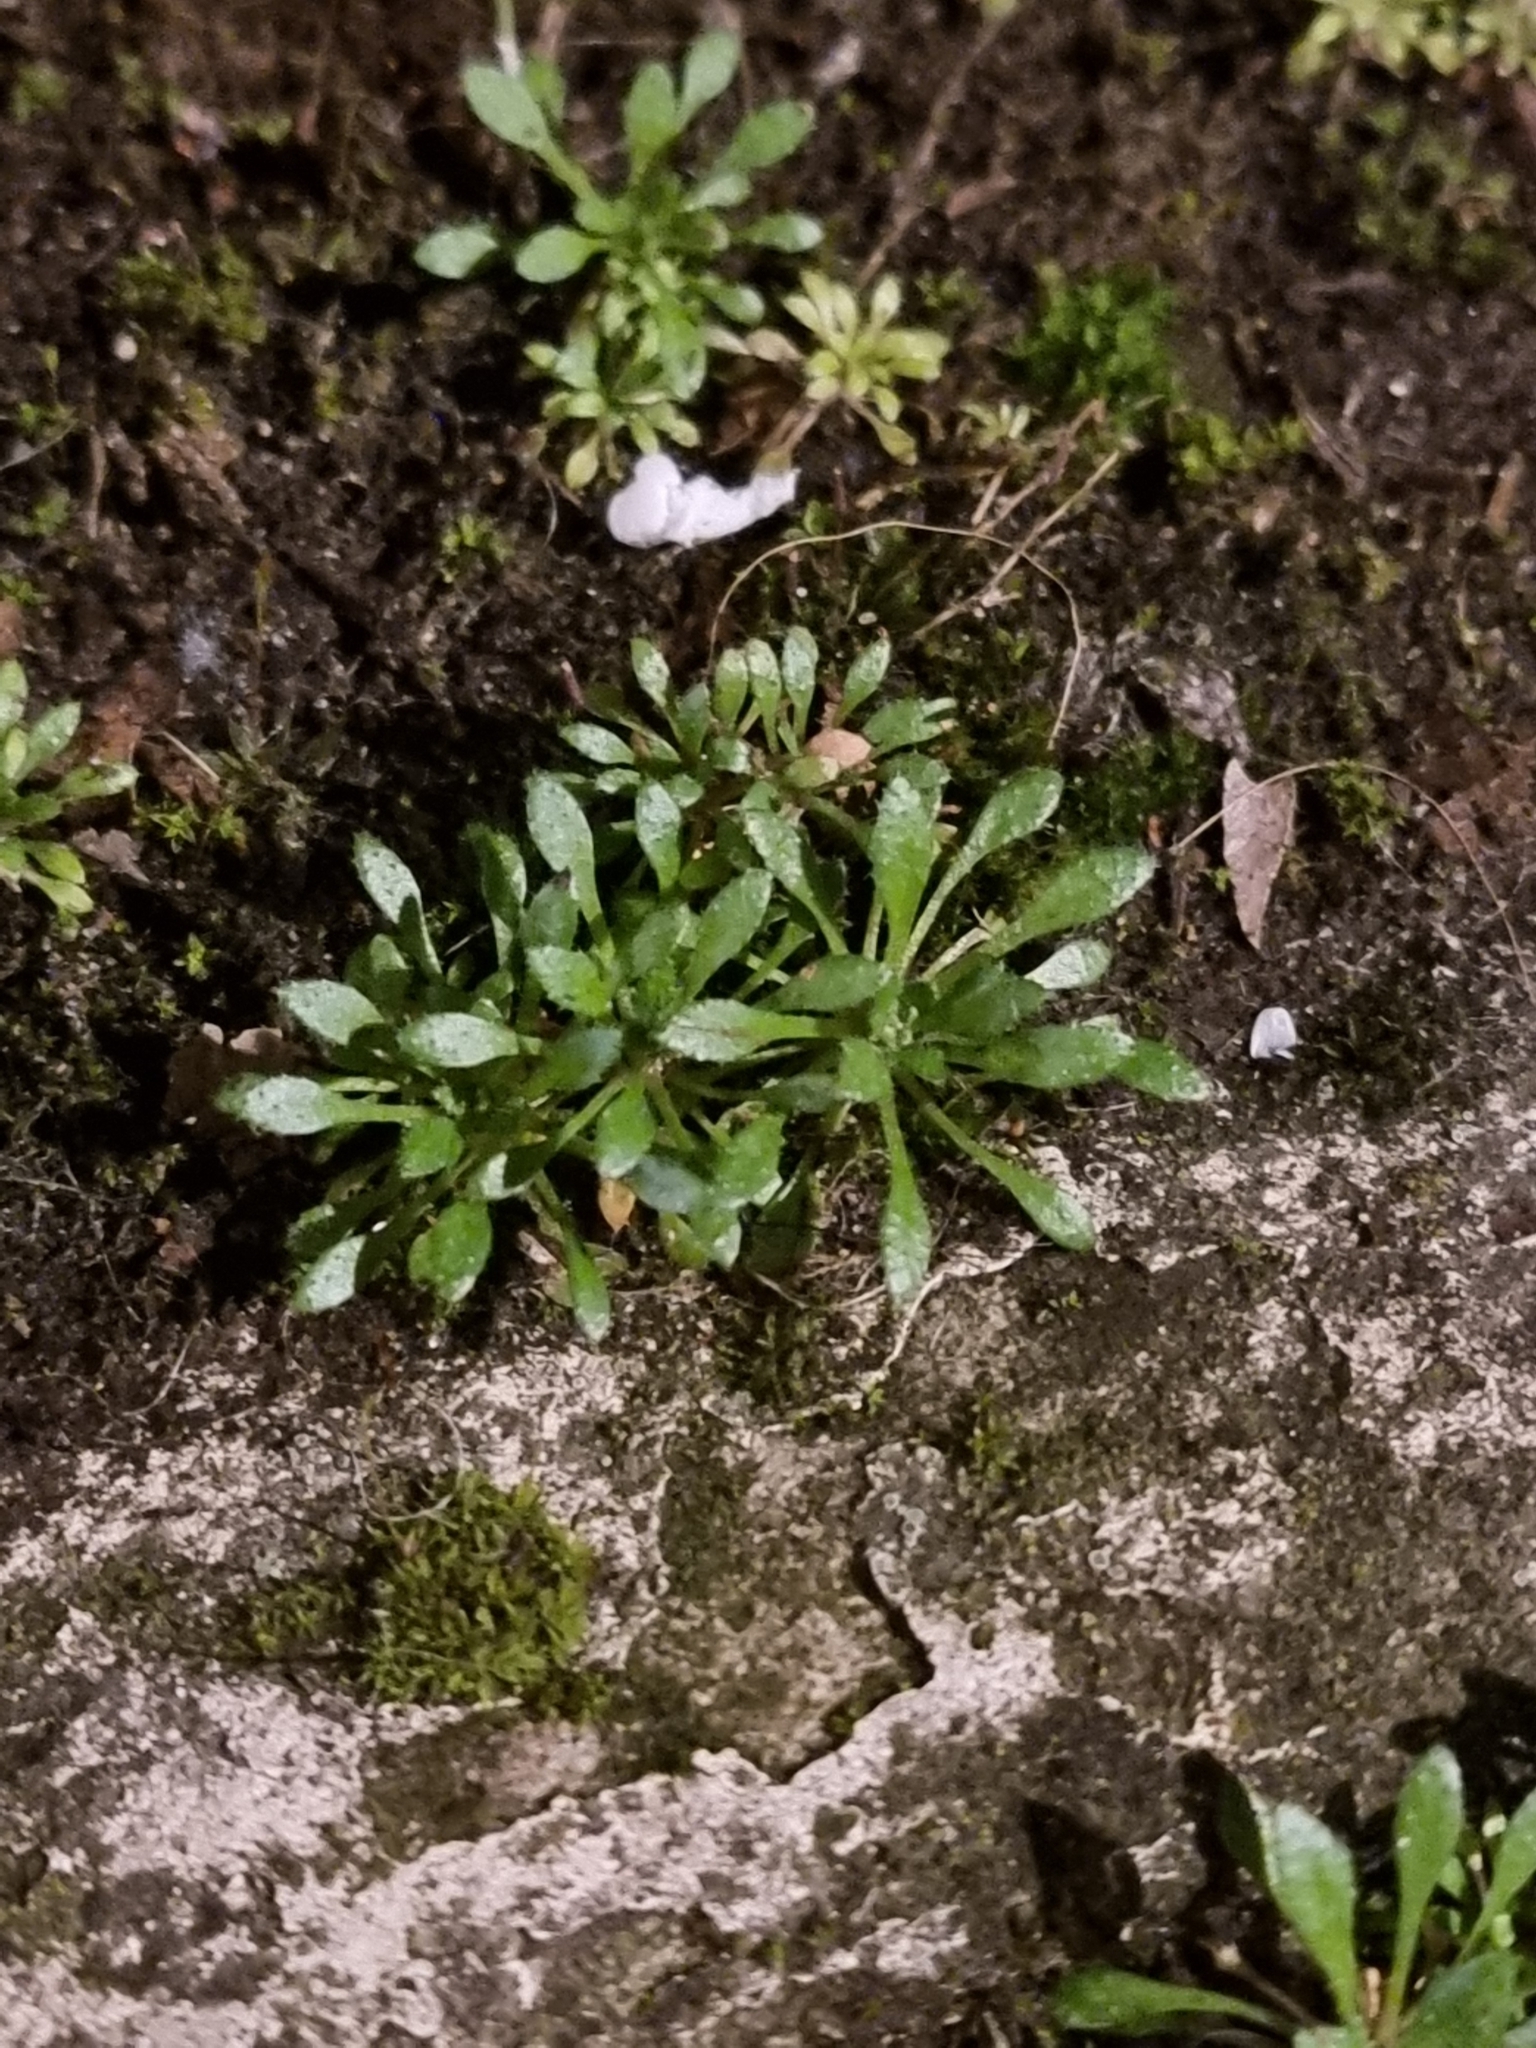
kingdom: Plantae
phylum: Tracheophyta
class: Magnoliopsida
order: Brassicales
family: Brassicaceae
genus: Draba
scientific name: Draba verna
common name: Spring draba
